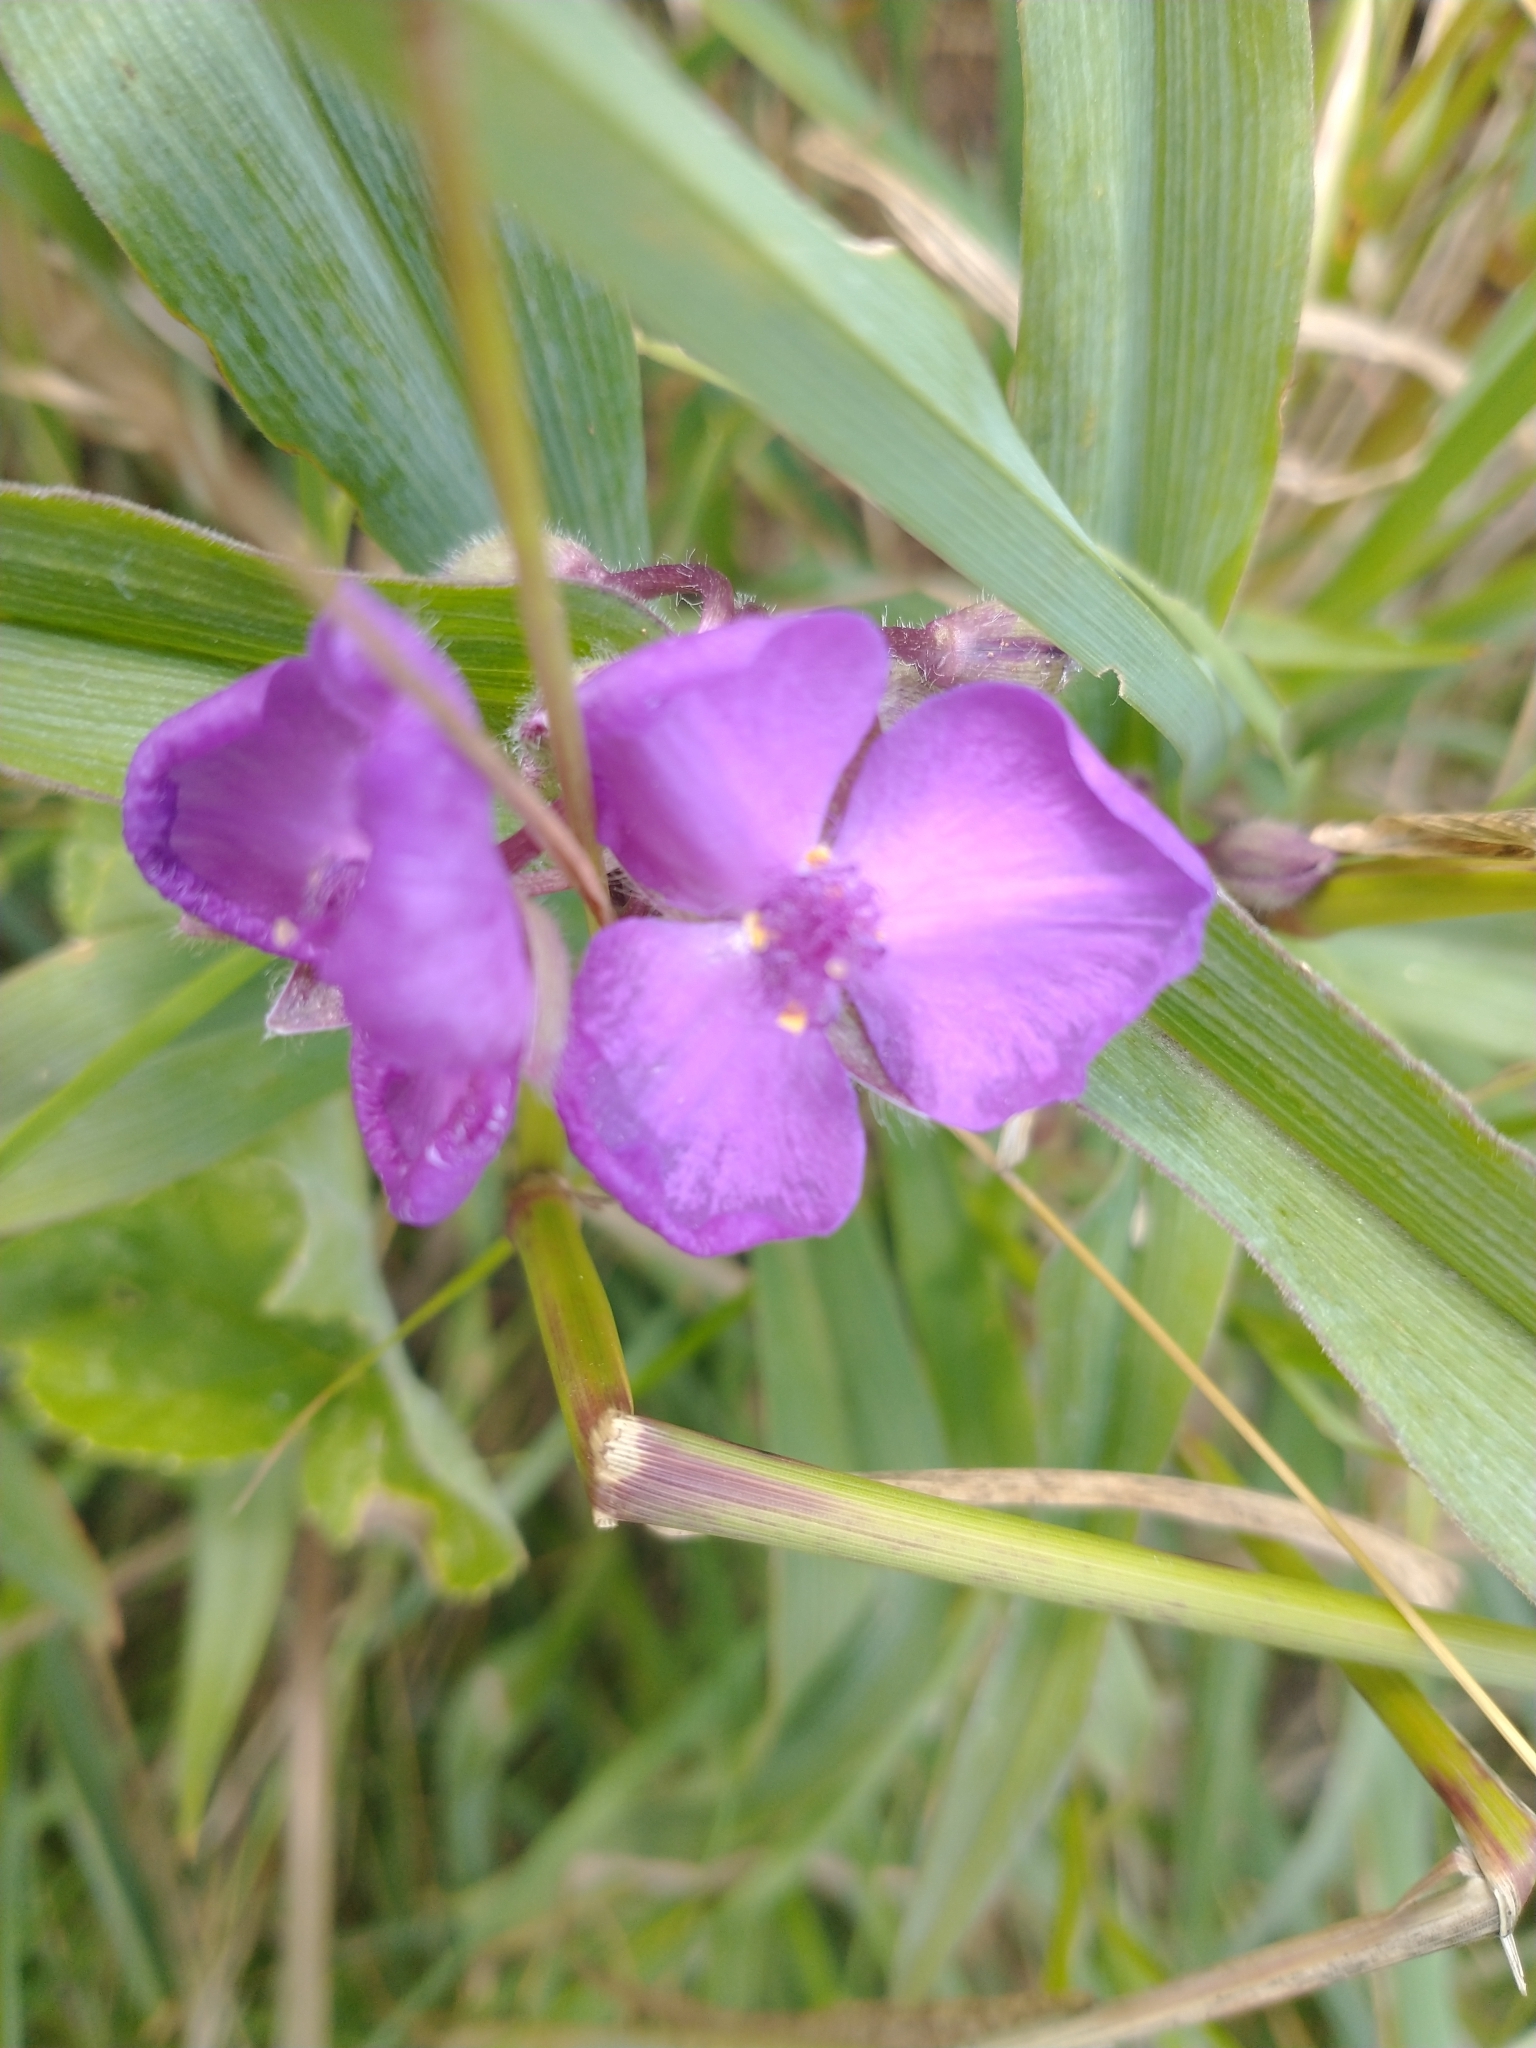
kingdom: Plantae
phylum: Tracheophyta
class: Liliopsida
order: Commelinales
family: Commelinaceae
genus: Tradescantia
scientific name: Tradescantia virginiana
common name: Spiderwort
